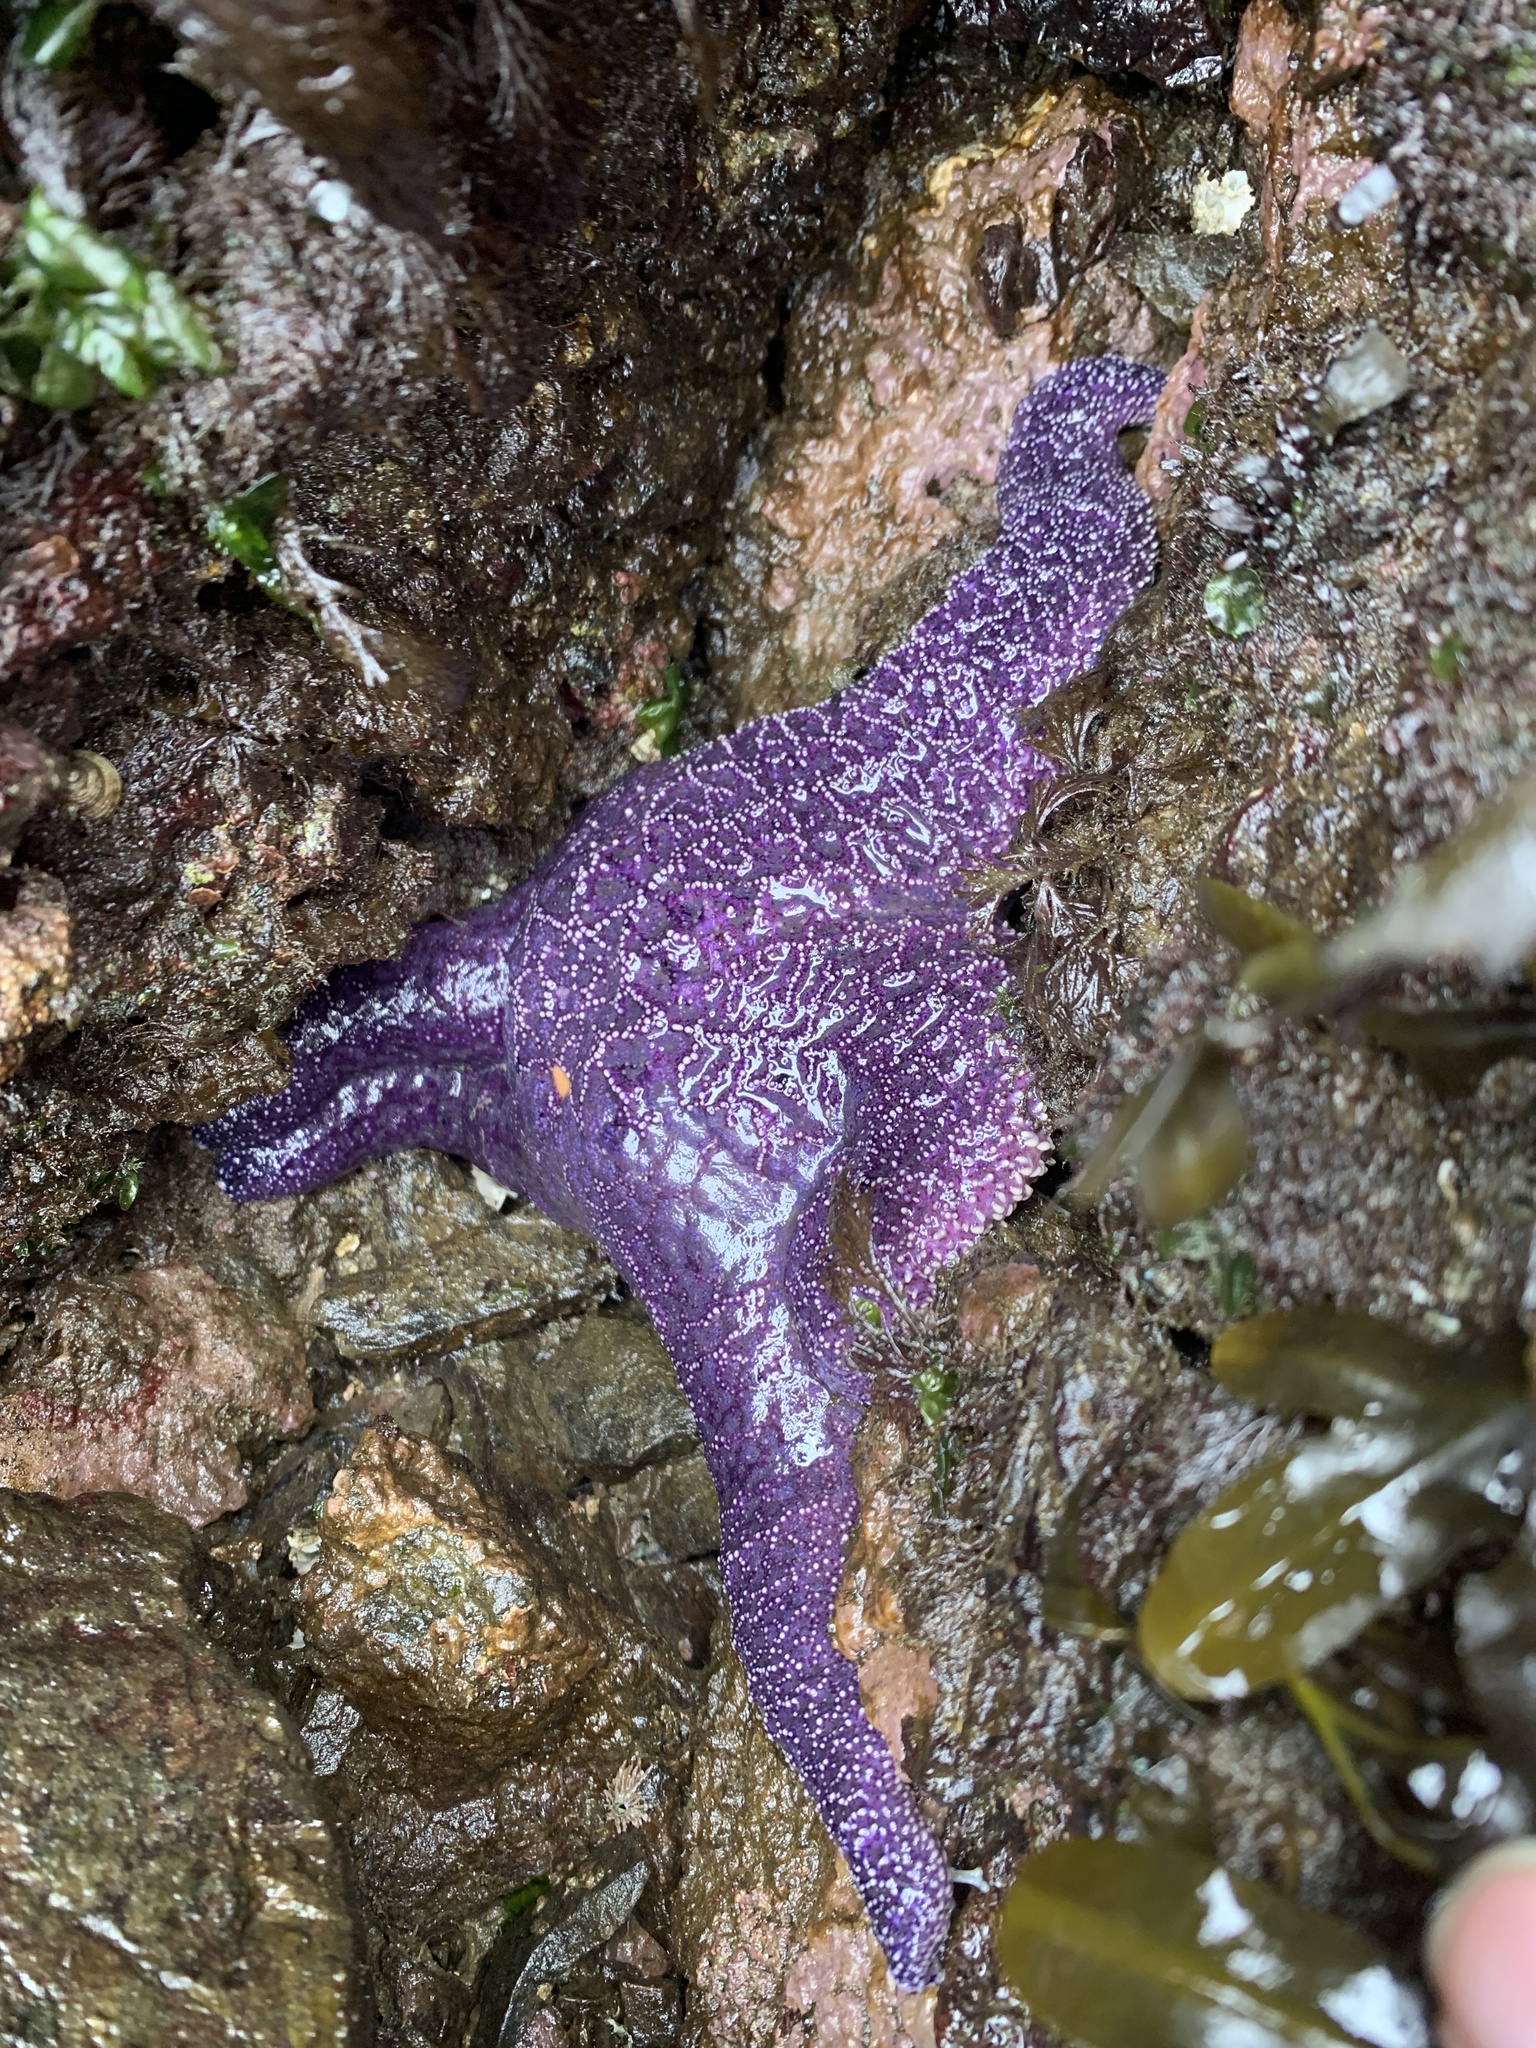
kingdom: Animalia
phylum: Echinodermata
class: Asteroidea
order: Forcipulatida
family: Asteriidae
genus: Pisaster
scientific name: Pisaster ochraceus
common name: Ochre stars
